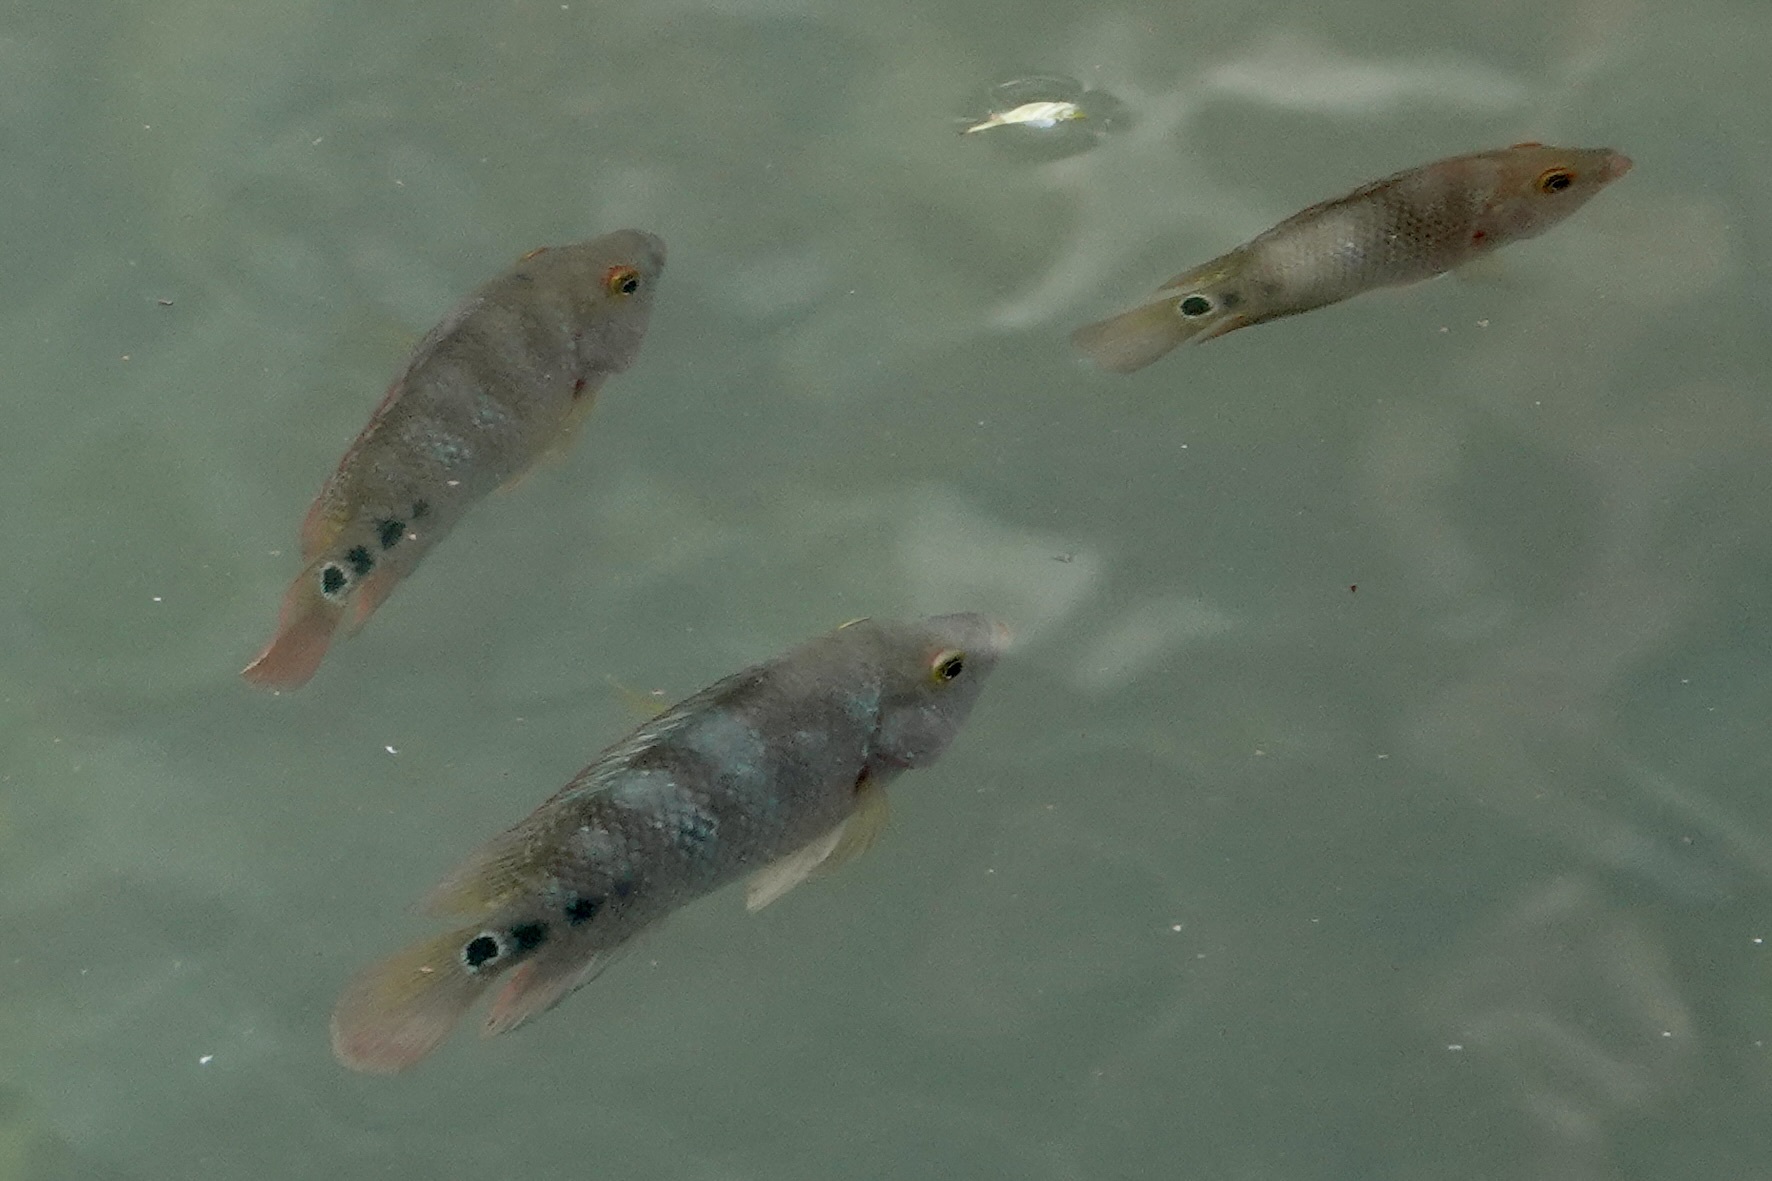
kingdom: Animalia
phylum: Chordata
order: Perciformes
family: Cichlidae
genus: Mayaheros
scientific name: Mayaheros urophthalmus
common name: Mayan cichlid
